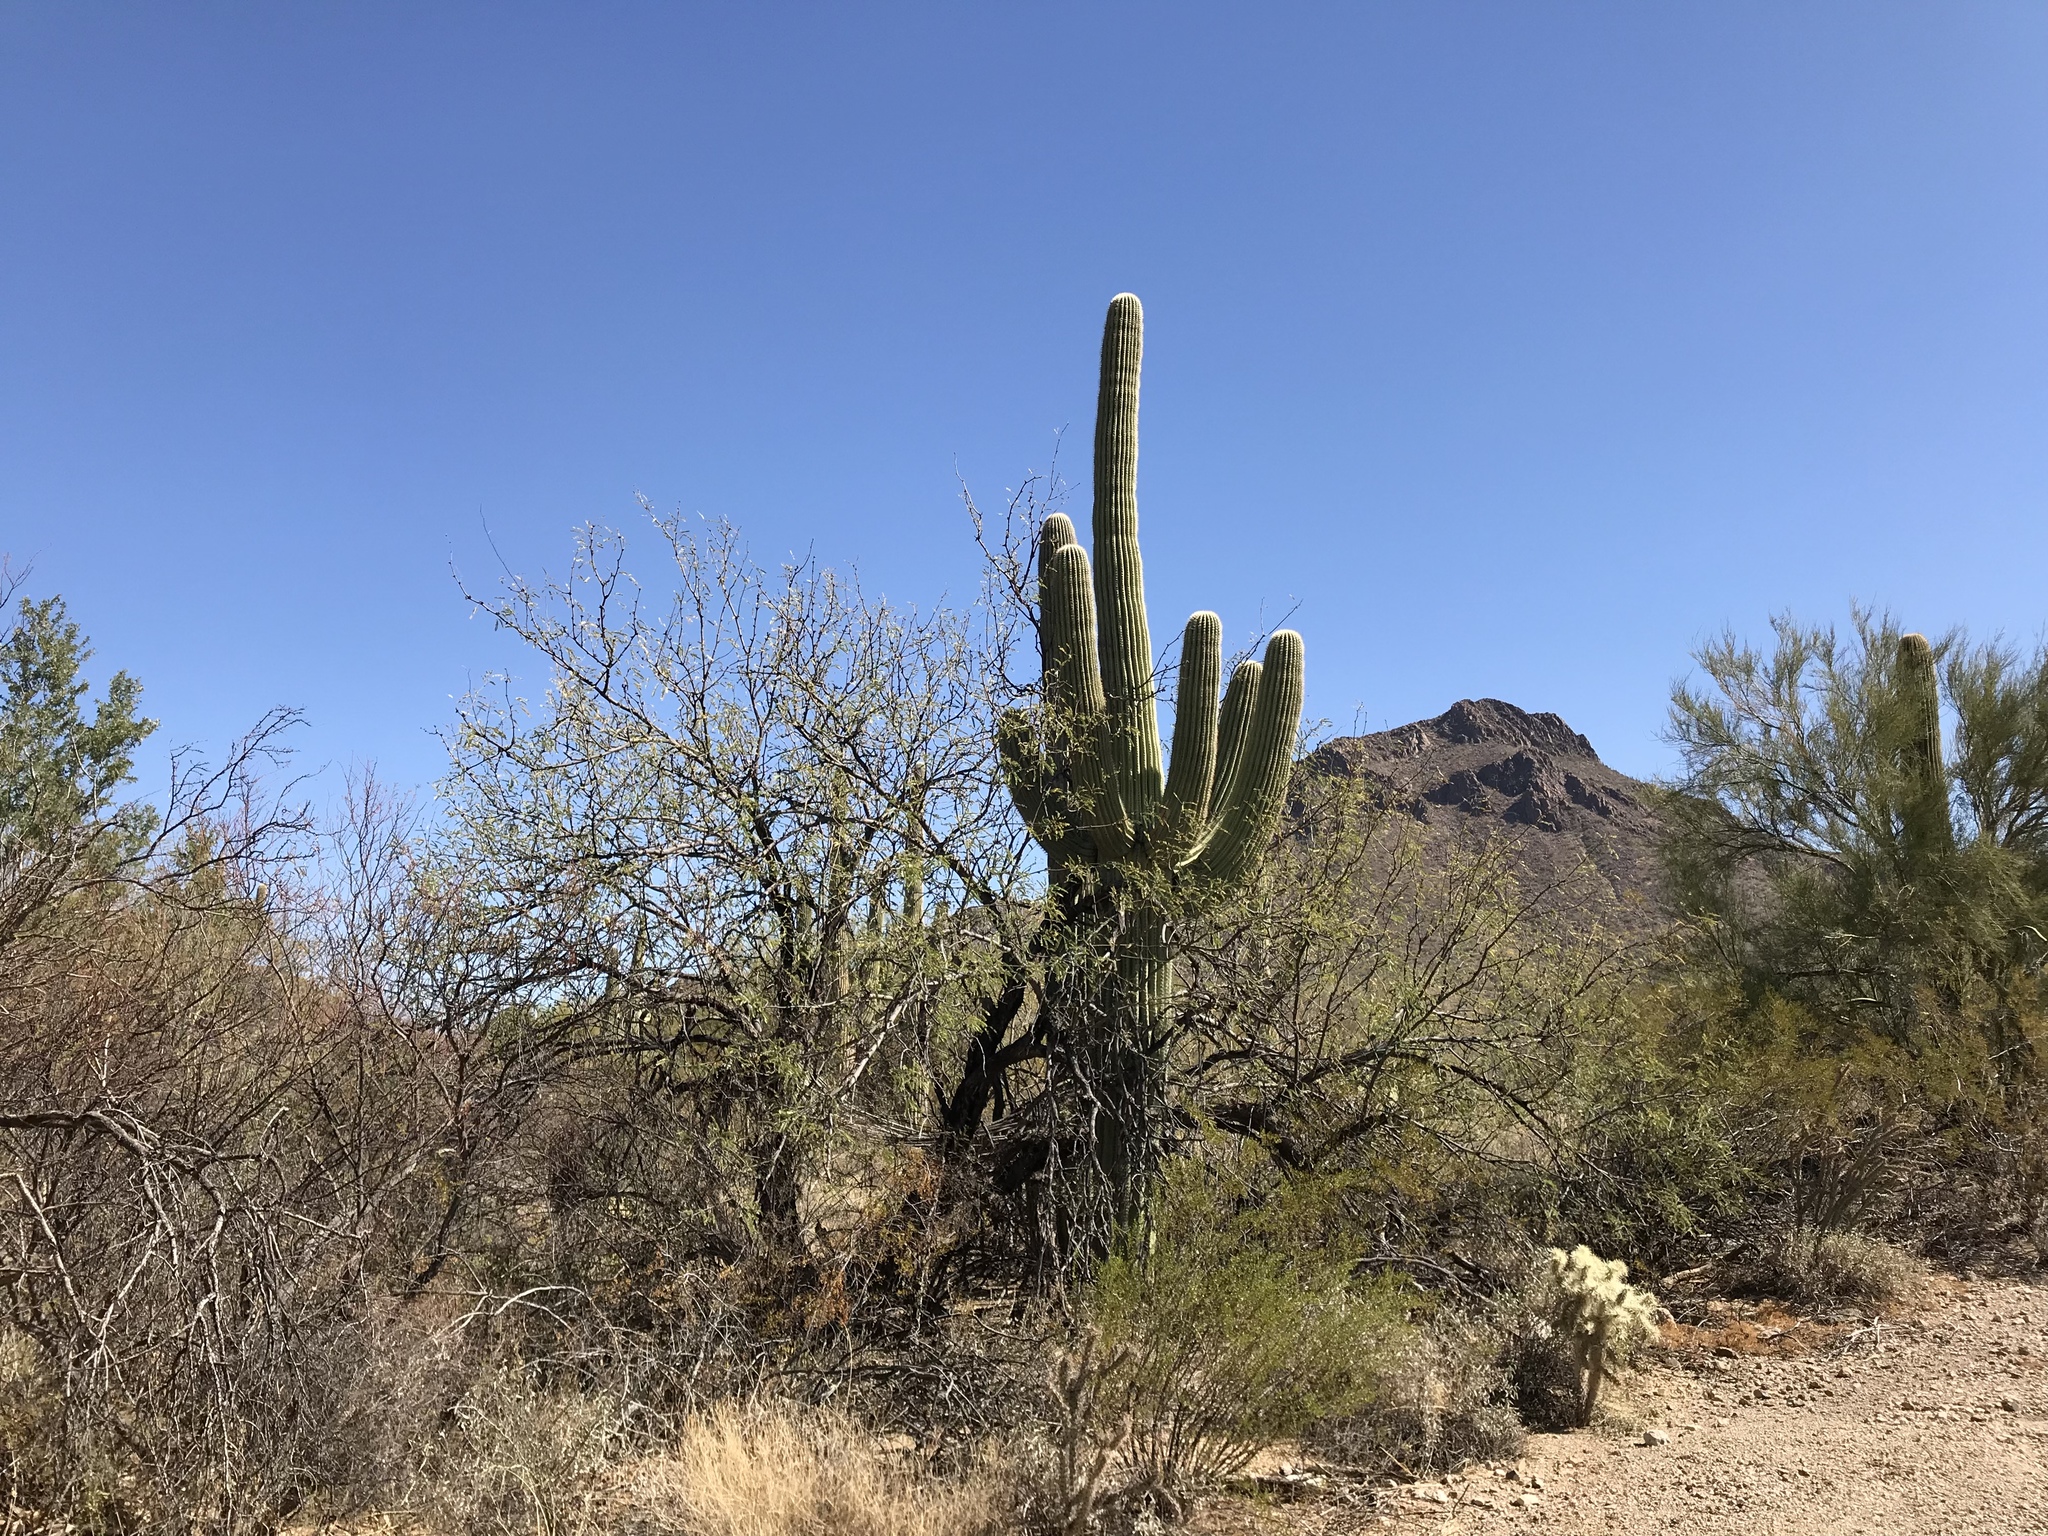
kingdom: Plantae
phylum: Tracheophyta
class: Magnoliopsida
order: Caryophyllales
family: Cactaceae
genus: Carnegiea
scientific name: Carnegiea gigantea
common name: Saguaro
